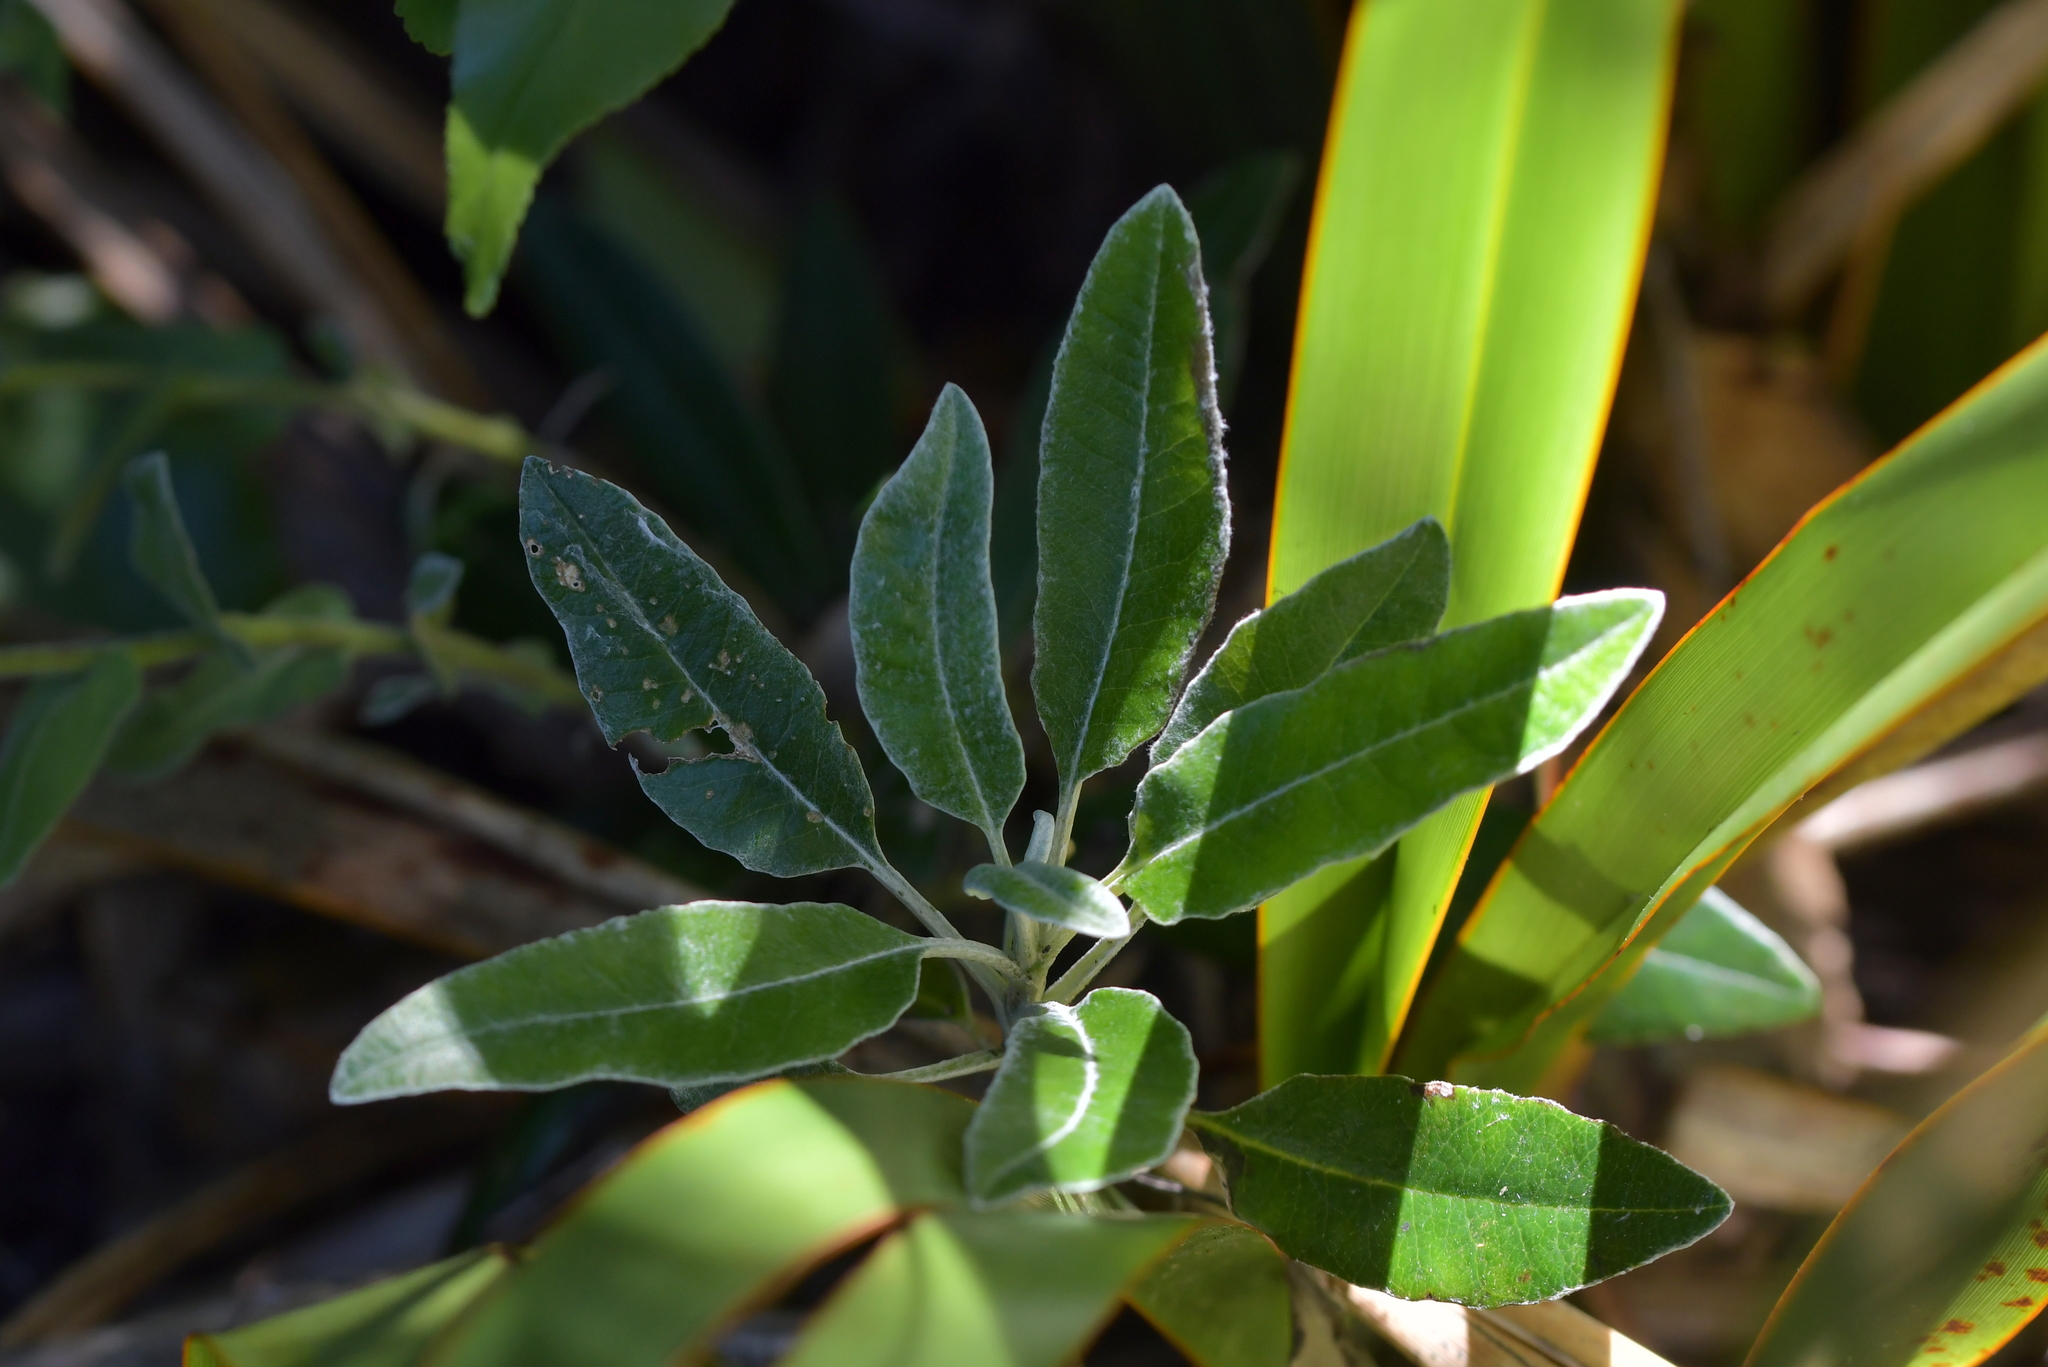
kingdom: Plantae
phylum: Tracheophyta
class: Magnoliopsida
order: Asterales
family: Asteraceae
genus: Brachyglottis
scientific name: Brachyglottis laxifolia
